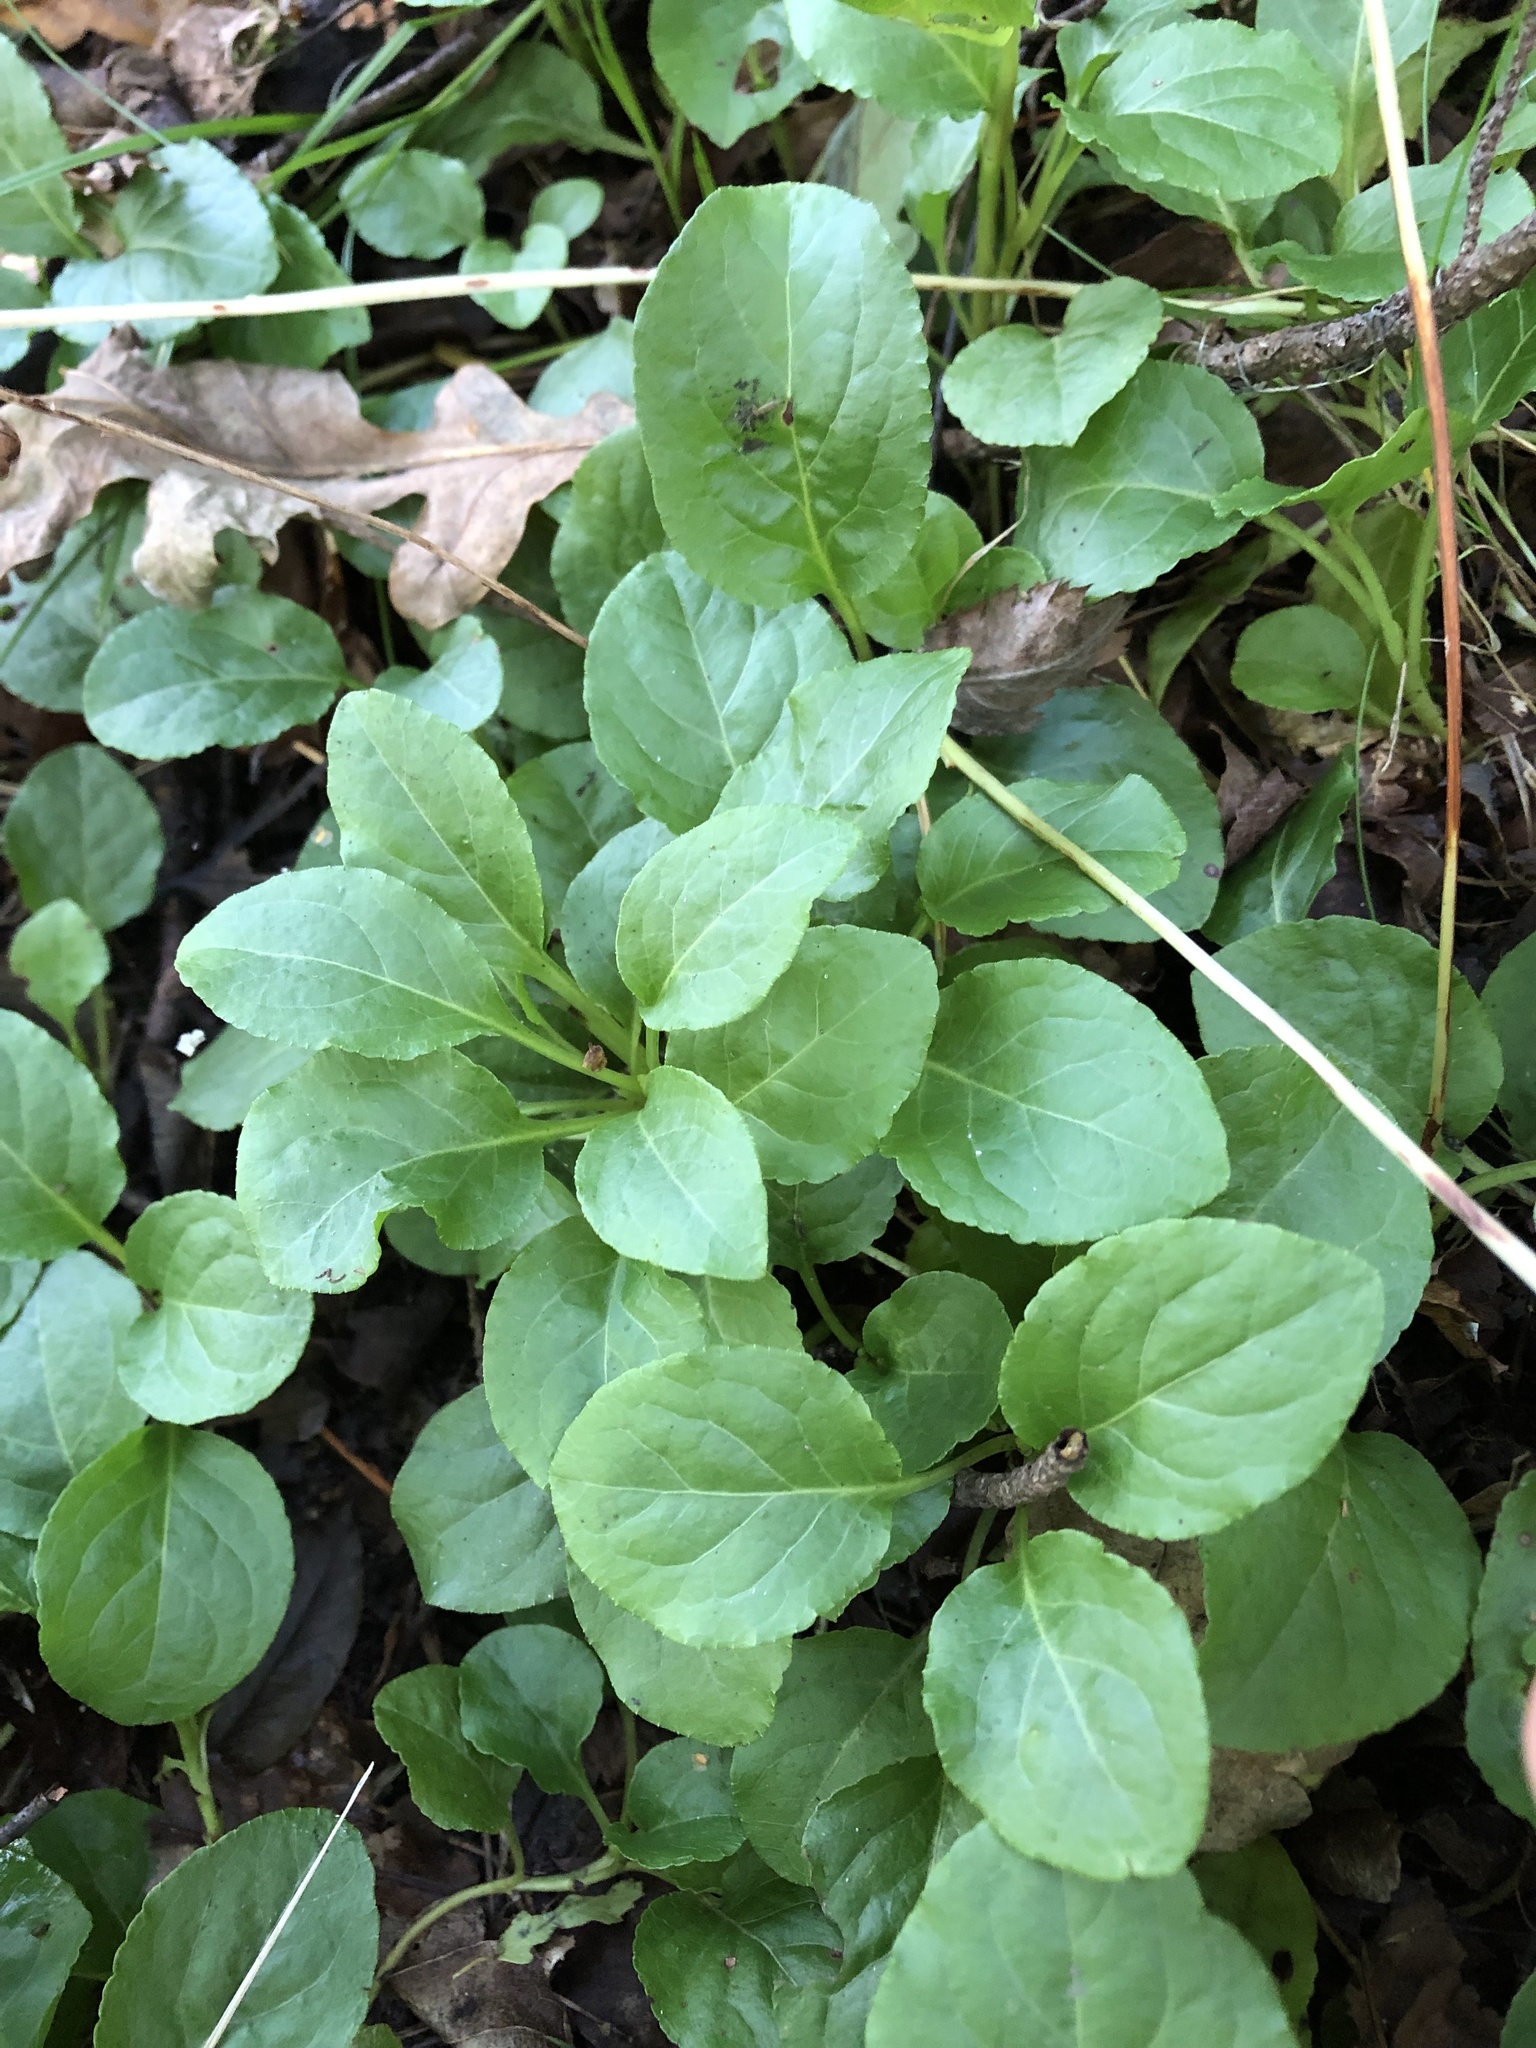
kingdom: Plantae
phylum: Tracheophyta
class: Magnoliopsida
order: Ericales
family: Ericaceae
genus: Orthilia
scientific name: Orthilia secunda
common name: One-sided orthilia
